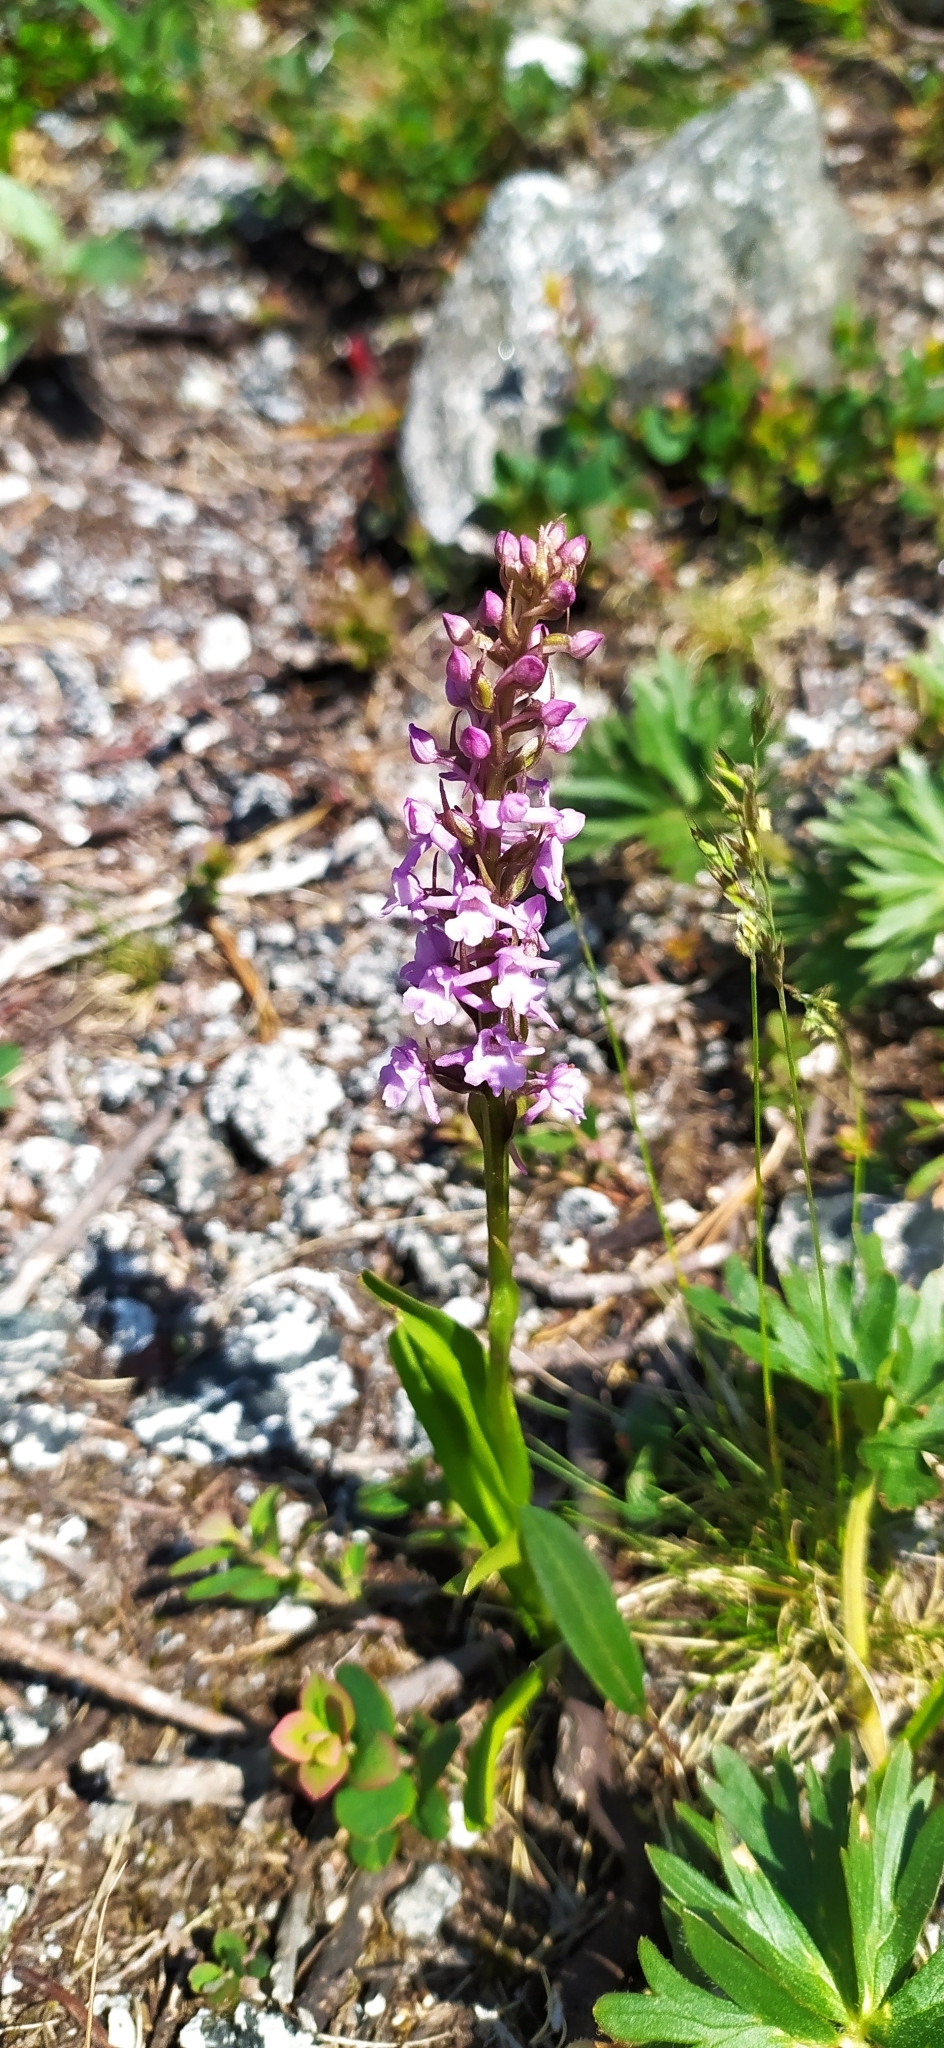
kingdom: Plantae
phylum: Tracheophyta
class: Liliopsida
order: Asparagales
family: Orchidaceae
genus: Gymnadenia
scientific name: Gymnadenia conopsea
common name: Fragrant orchid
